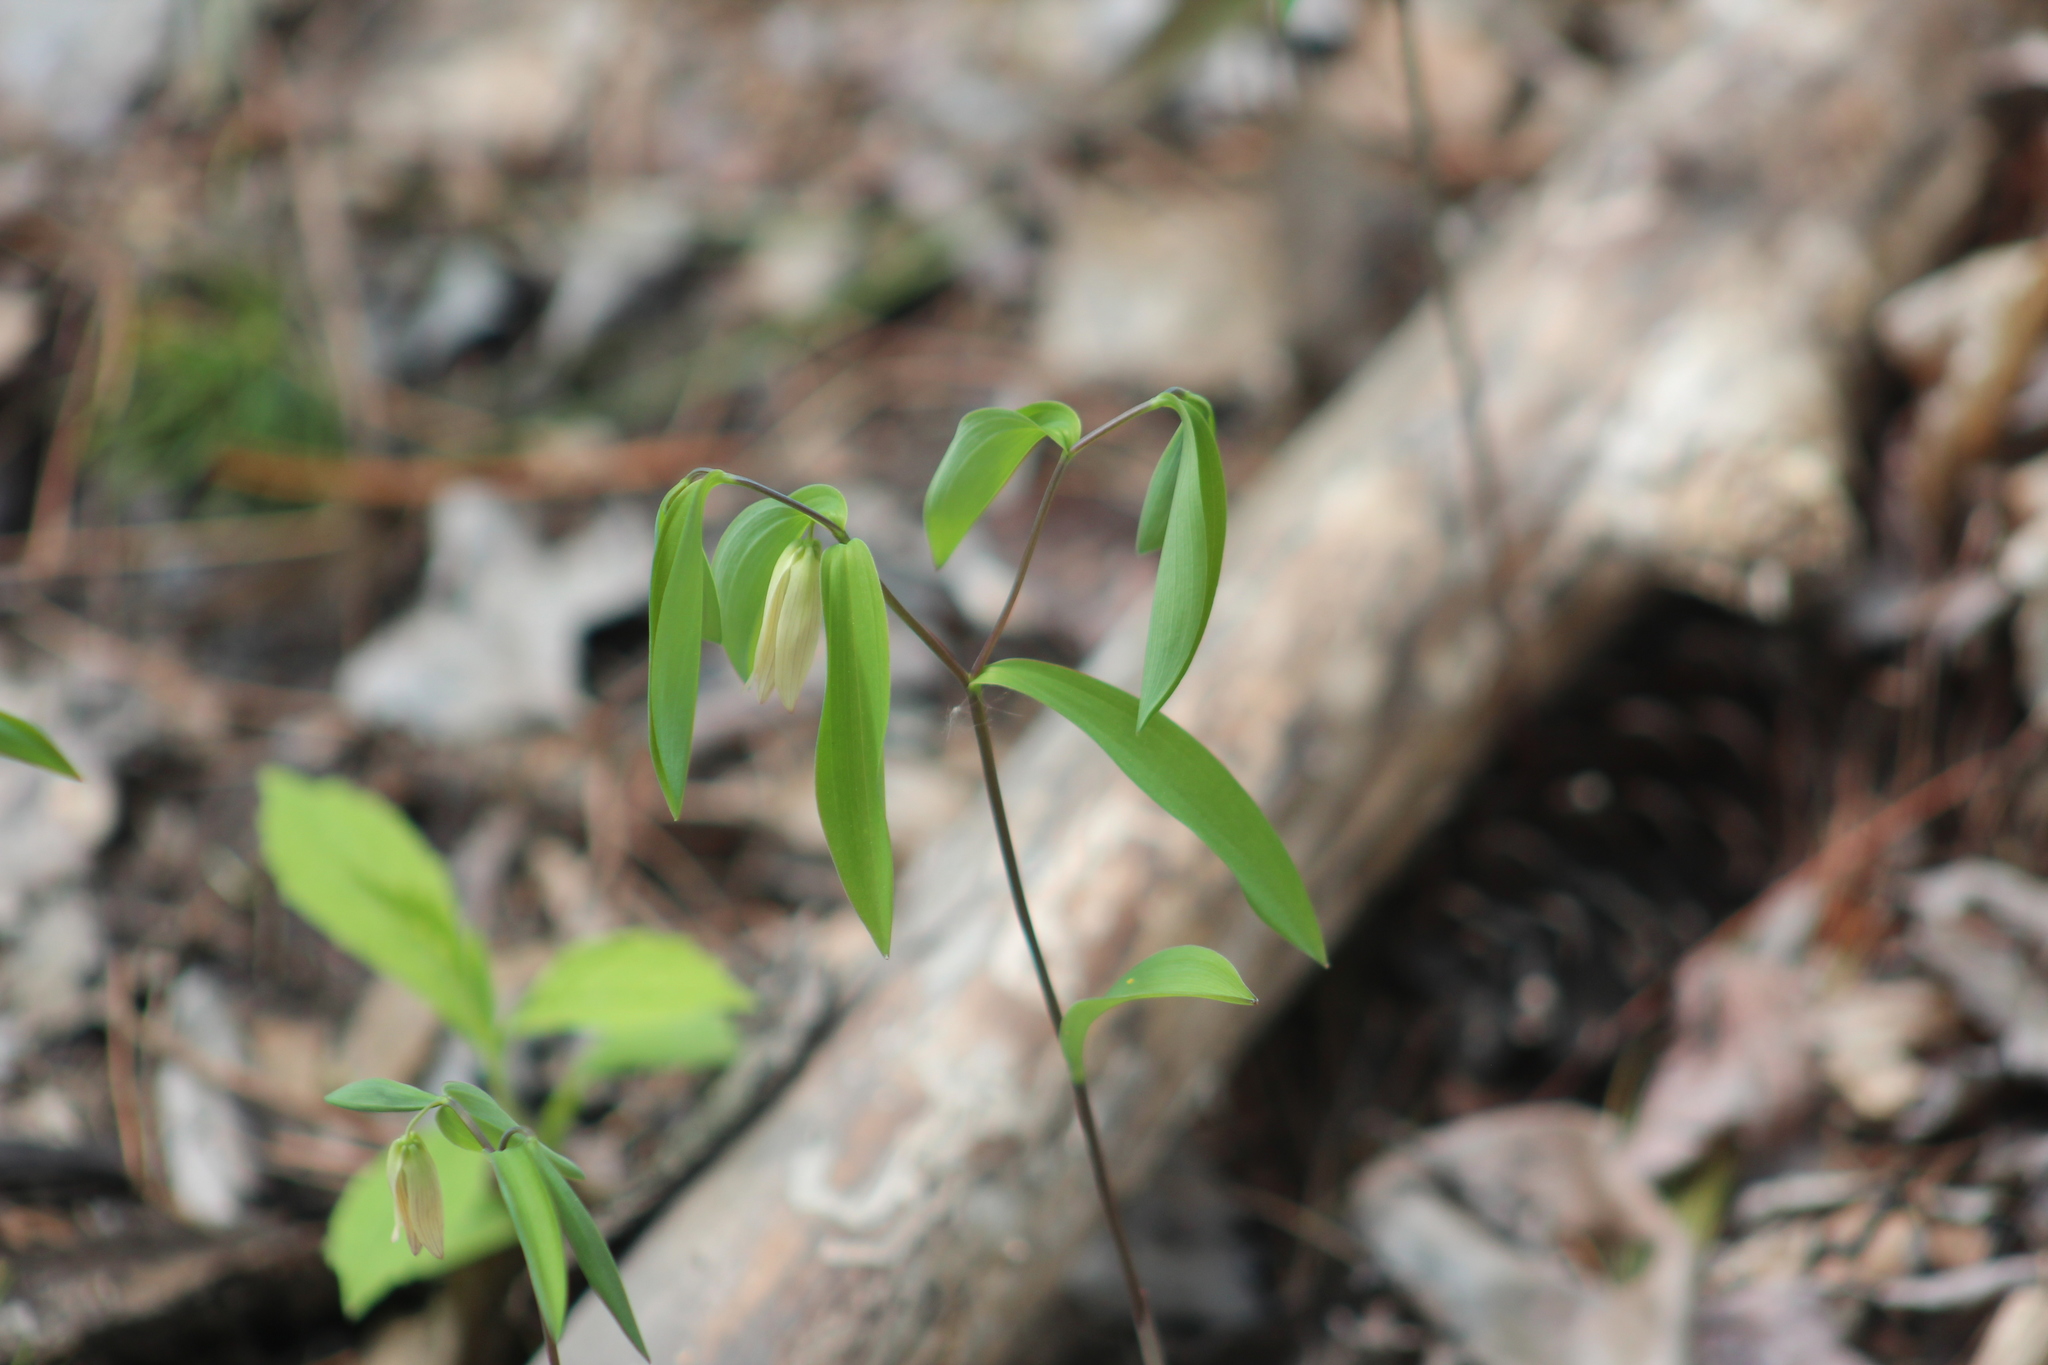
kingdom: Plantae
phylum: Tracheophyta
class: Liliopsida
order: Liliales
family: Colchicaceae
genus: Uvularia
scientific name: Uvularia sessilifolia
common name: Straw-lily
